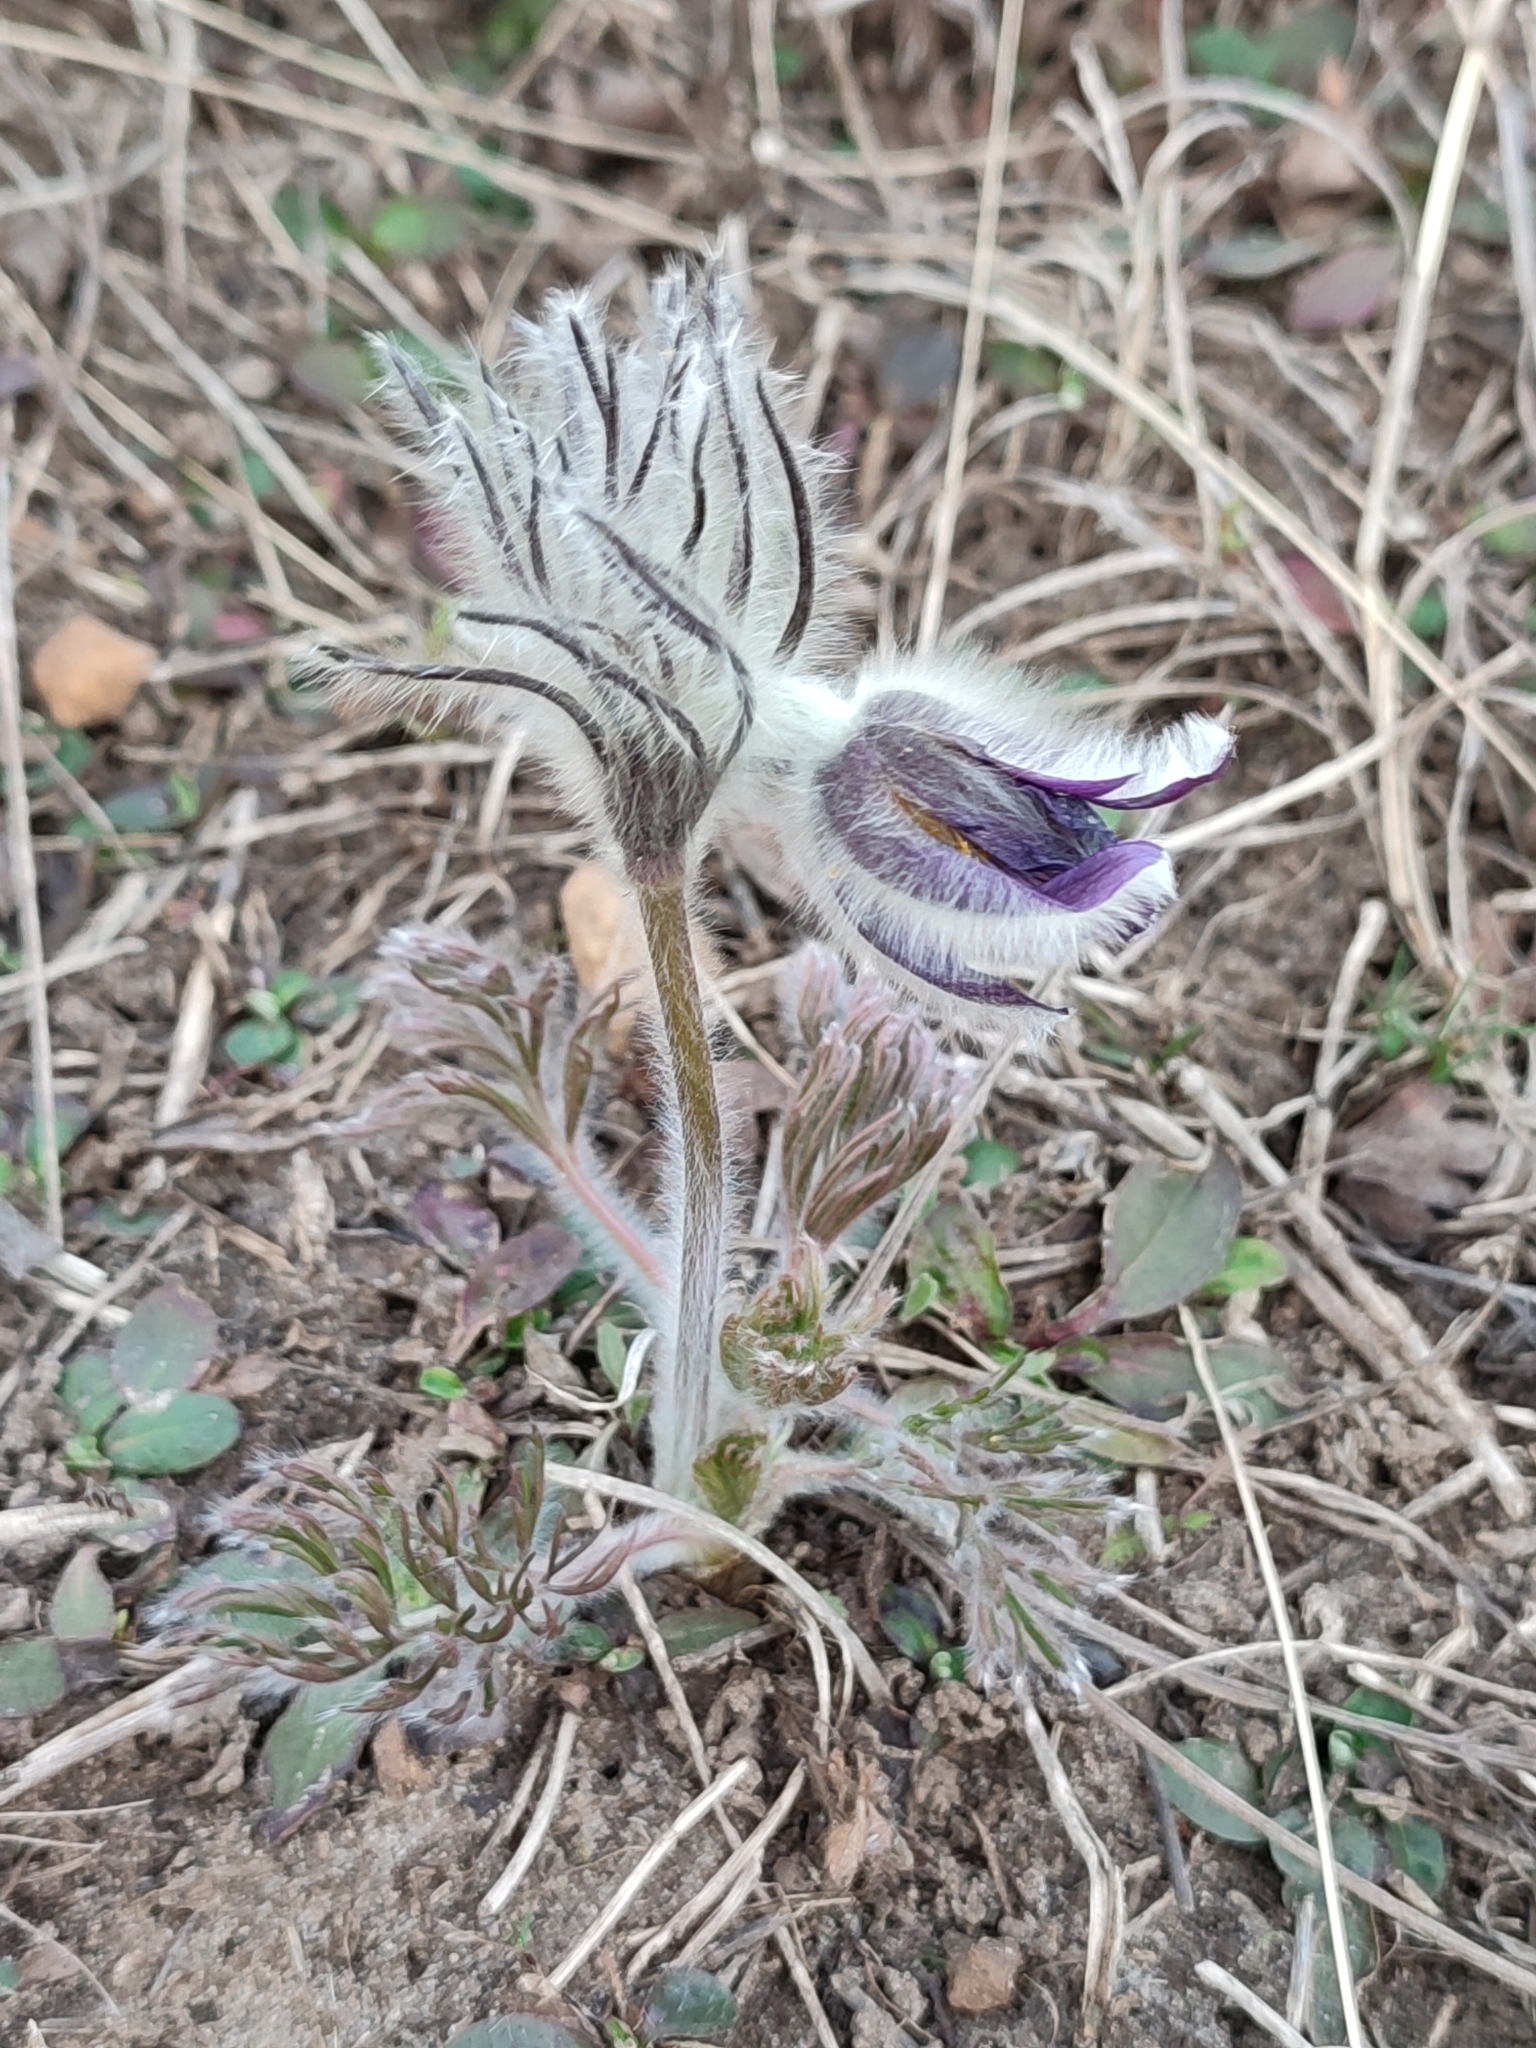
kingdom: Plantae
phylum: Tracheophyta
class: Magnoliopsida
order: Ranunculales
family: Ranunculaceae
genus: Pulsatilla
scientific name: Pulsatilla pratensis
